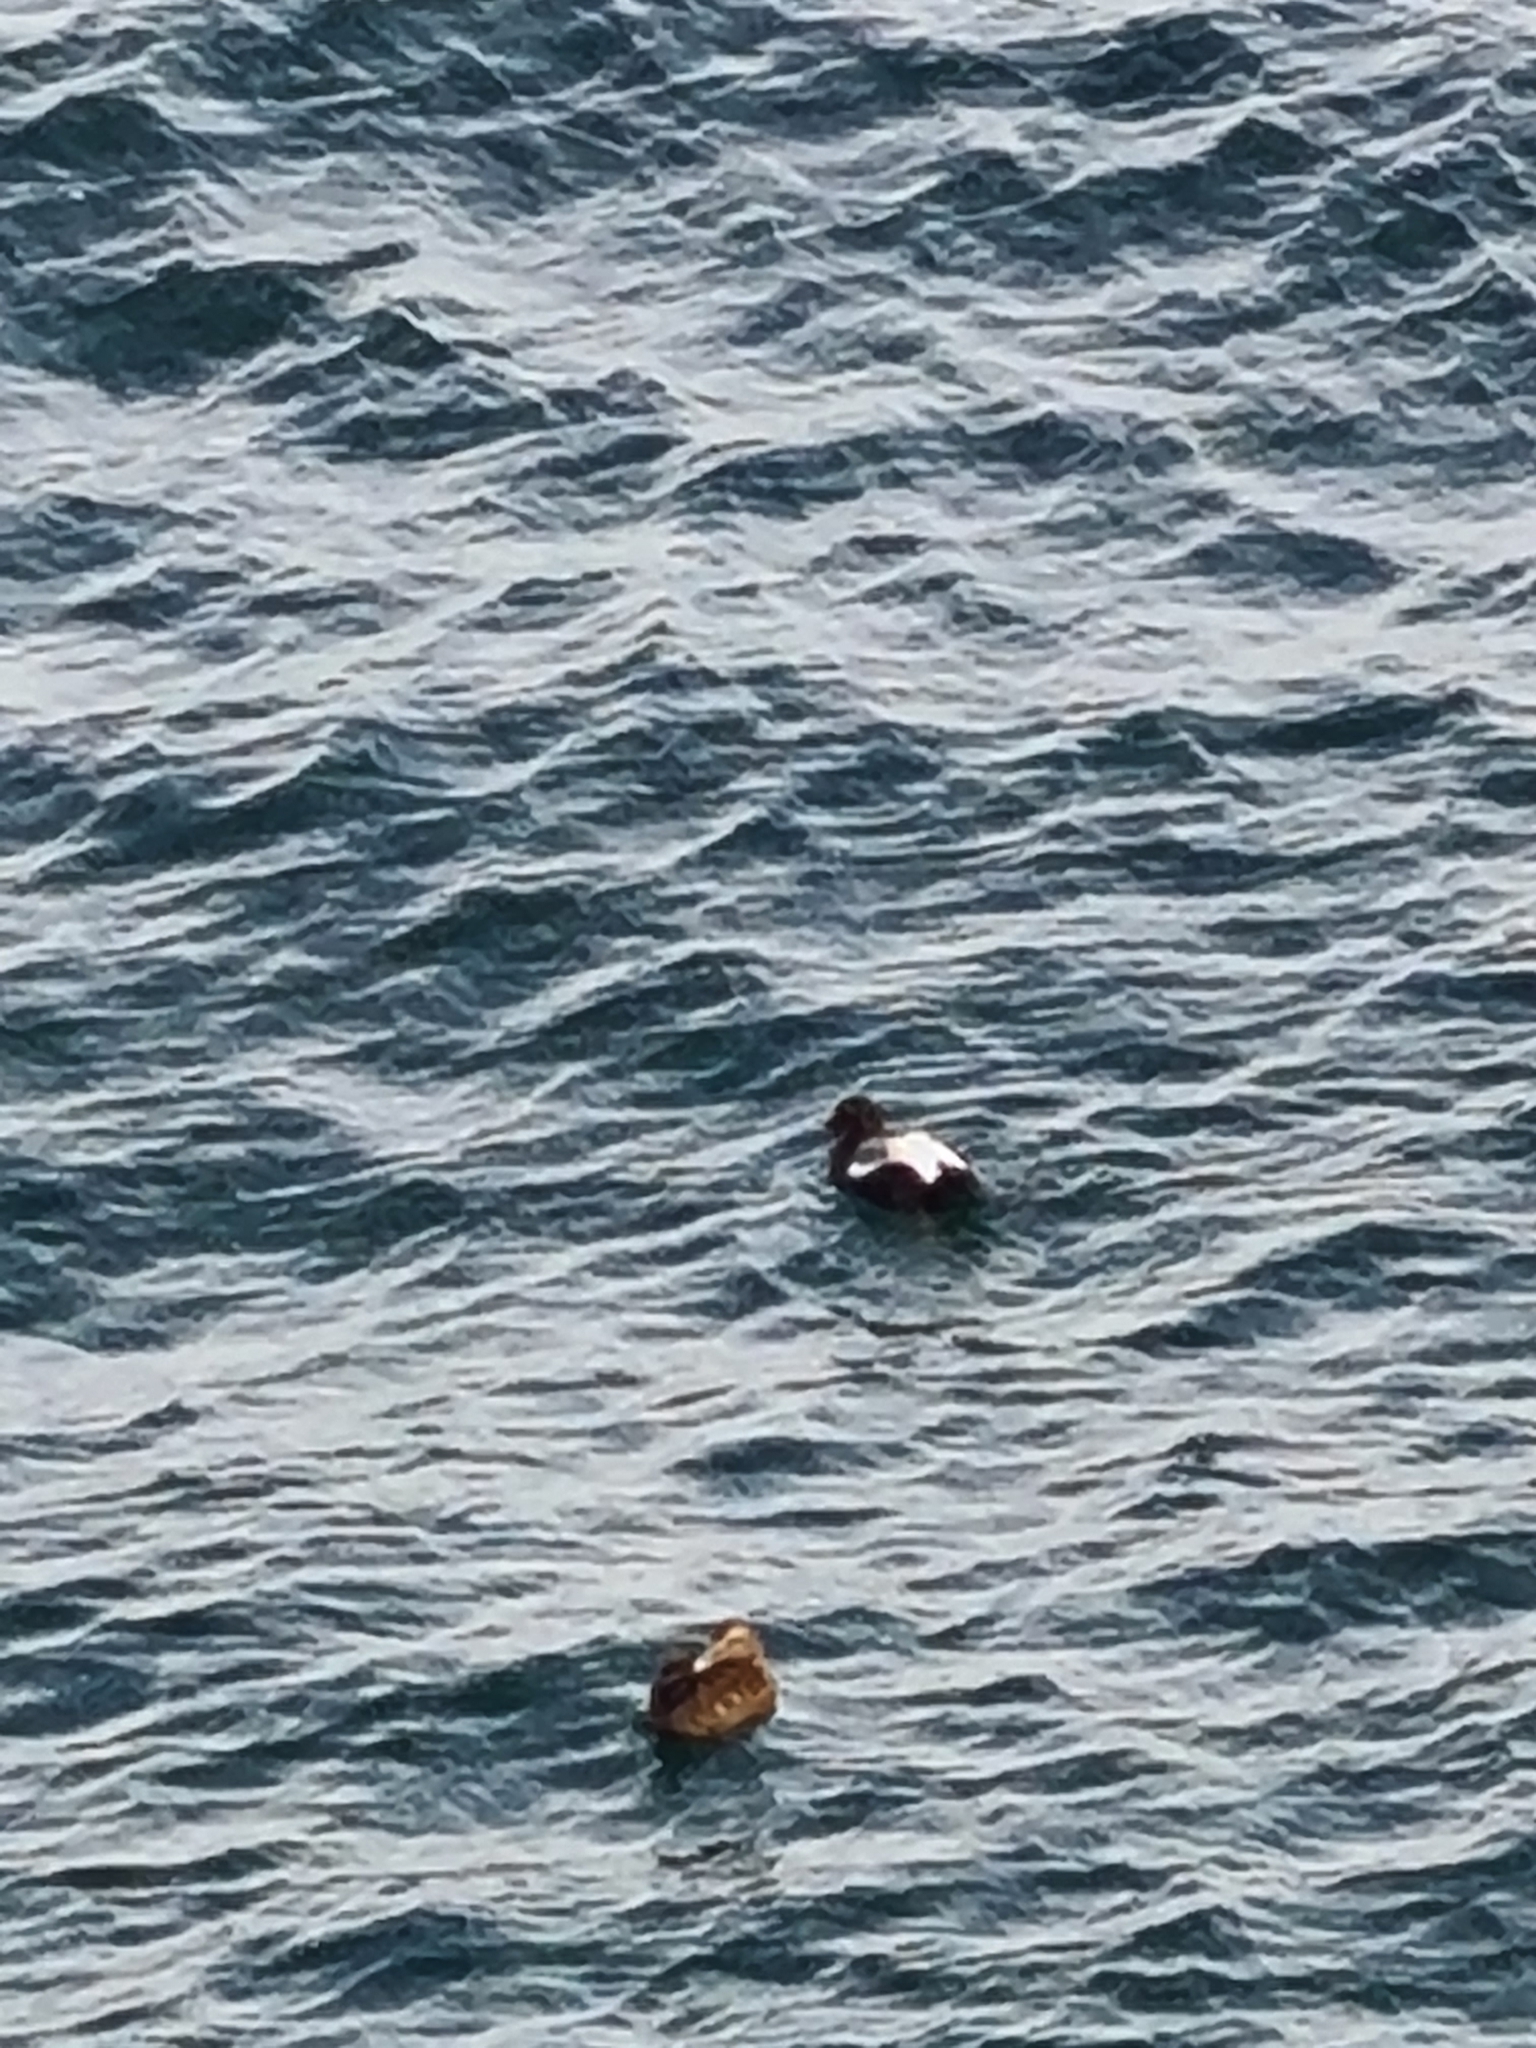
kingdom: Animalia
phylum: Chordata
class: Aves
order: Anseriformes
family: Anatidae
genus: Somateria
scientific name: Somateria mollissima
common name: Common eider
